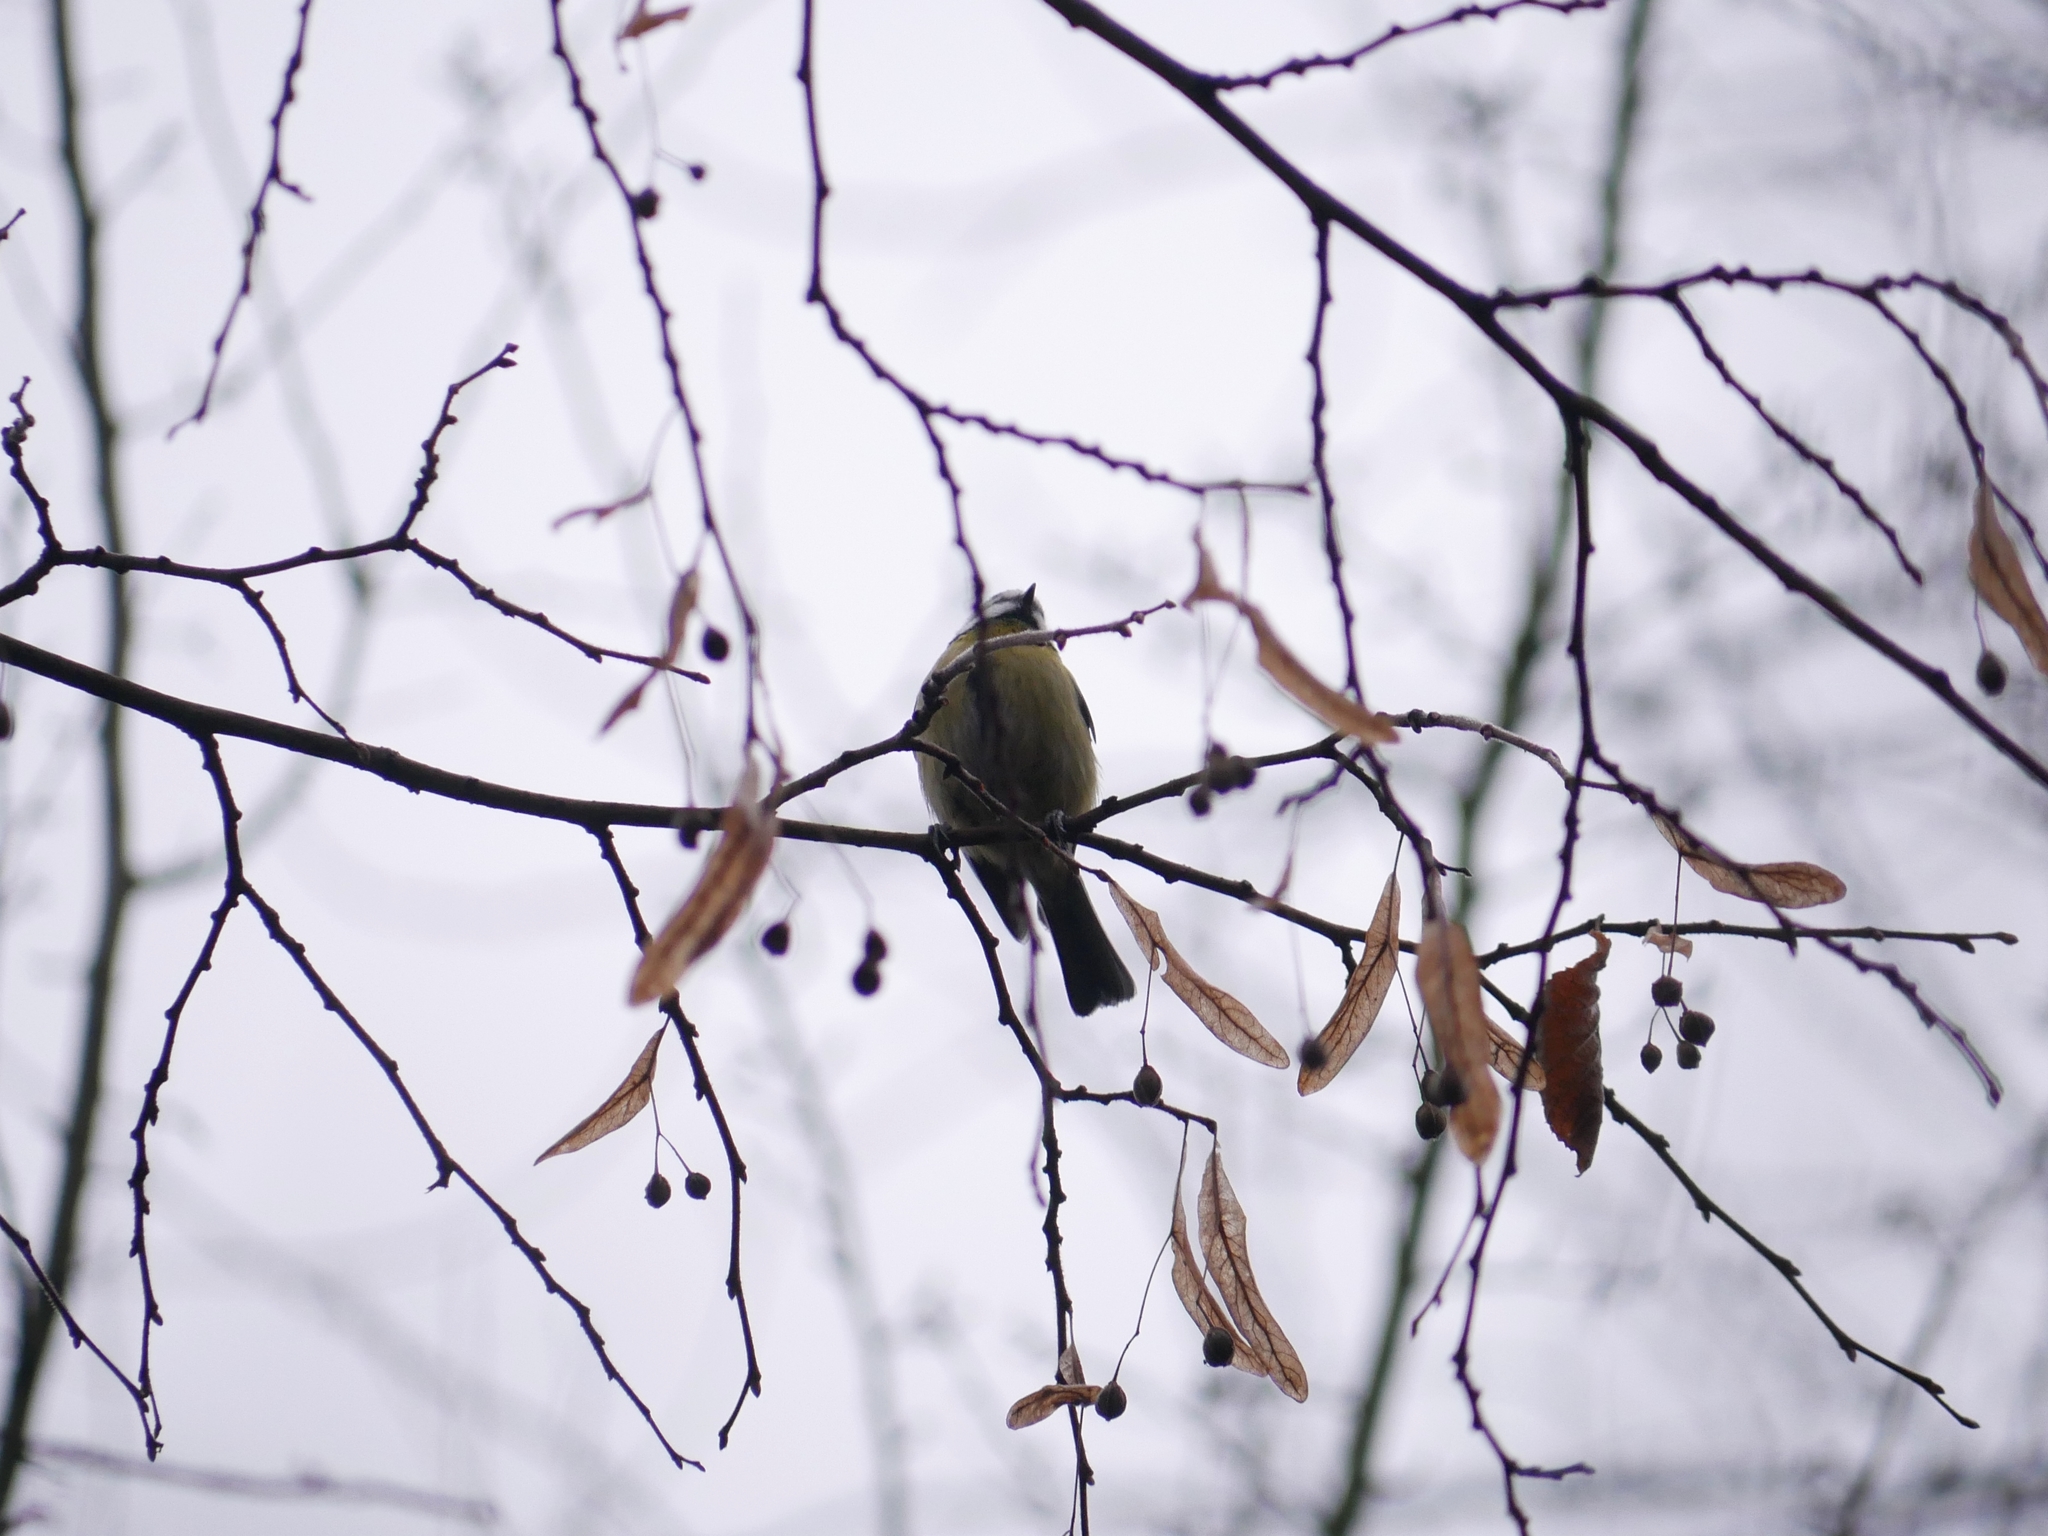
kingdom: Animalia
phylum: Chordata
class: Aves
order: Passeriformes
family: Paridae
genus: Cyanistes
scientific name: Cyanistes caeruleus
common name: Eurasian blue tit
